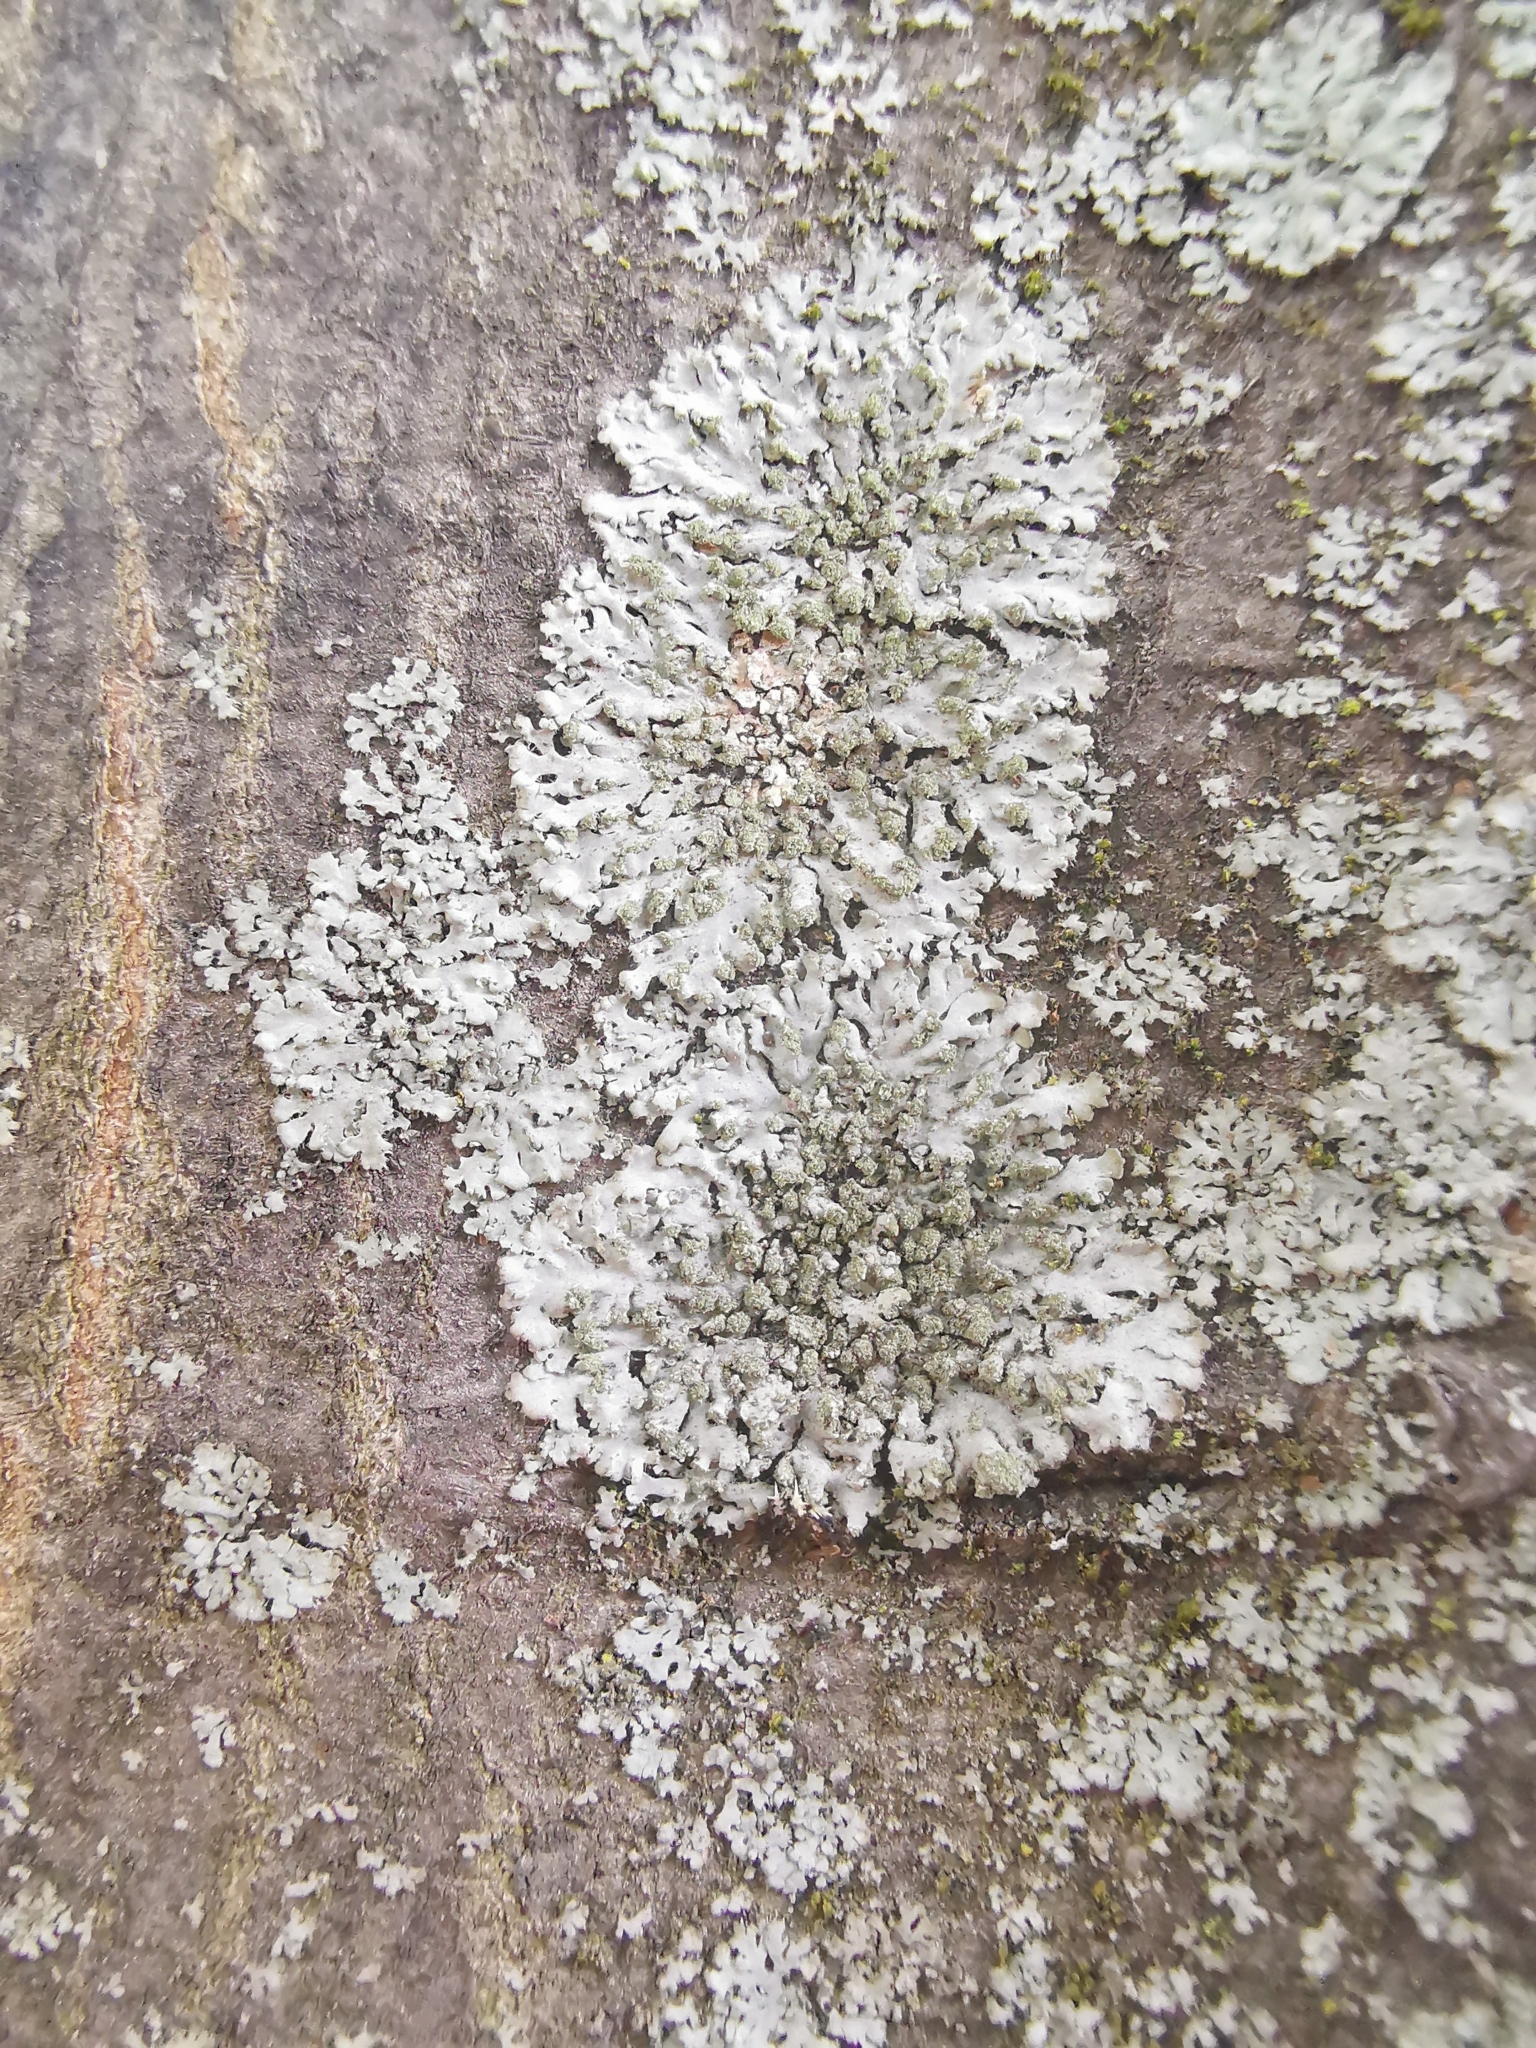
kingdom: Fungi
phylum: Ascomycota
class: Lecanoromycetes
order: Caliciales
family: Physciaceae
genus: Phaeophyscia
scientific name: Phaeophyscia orbicularis
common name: Mealy shadow lichen
